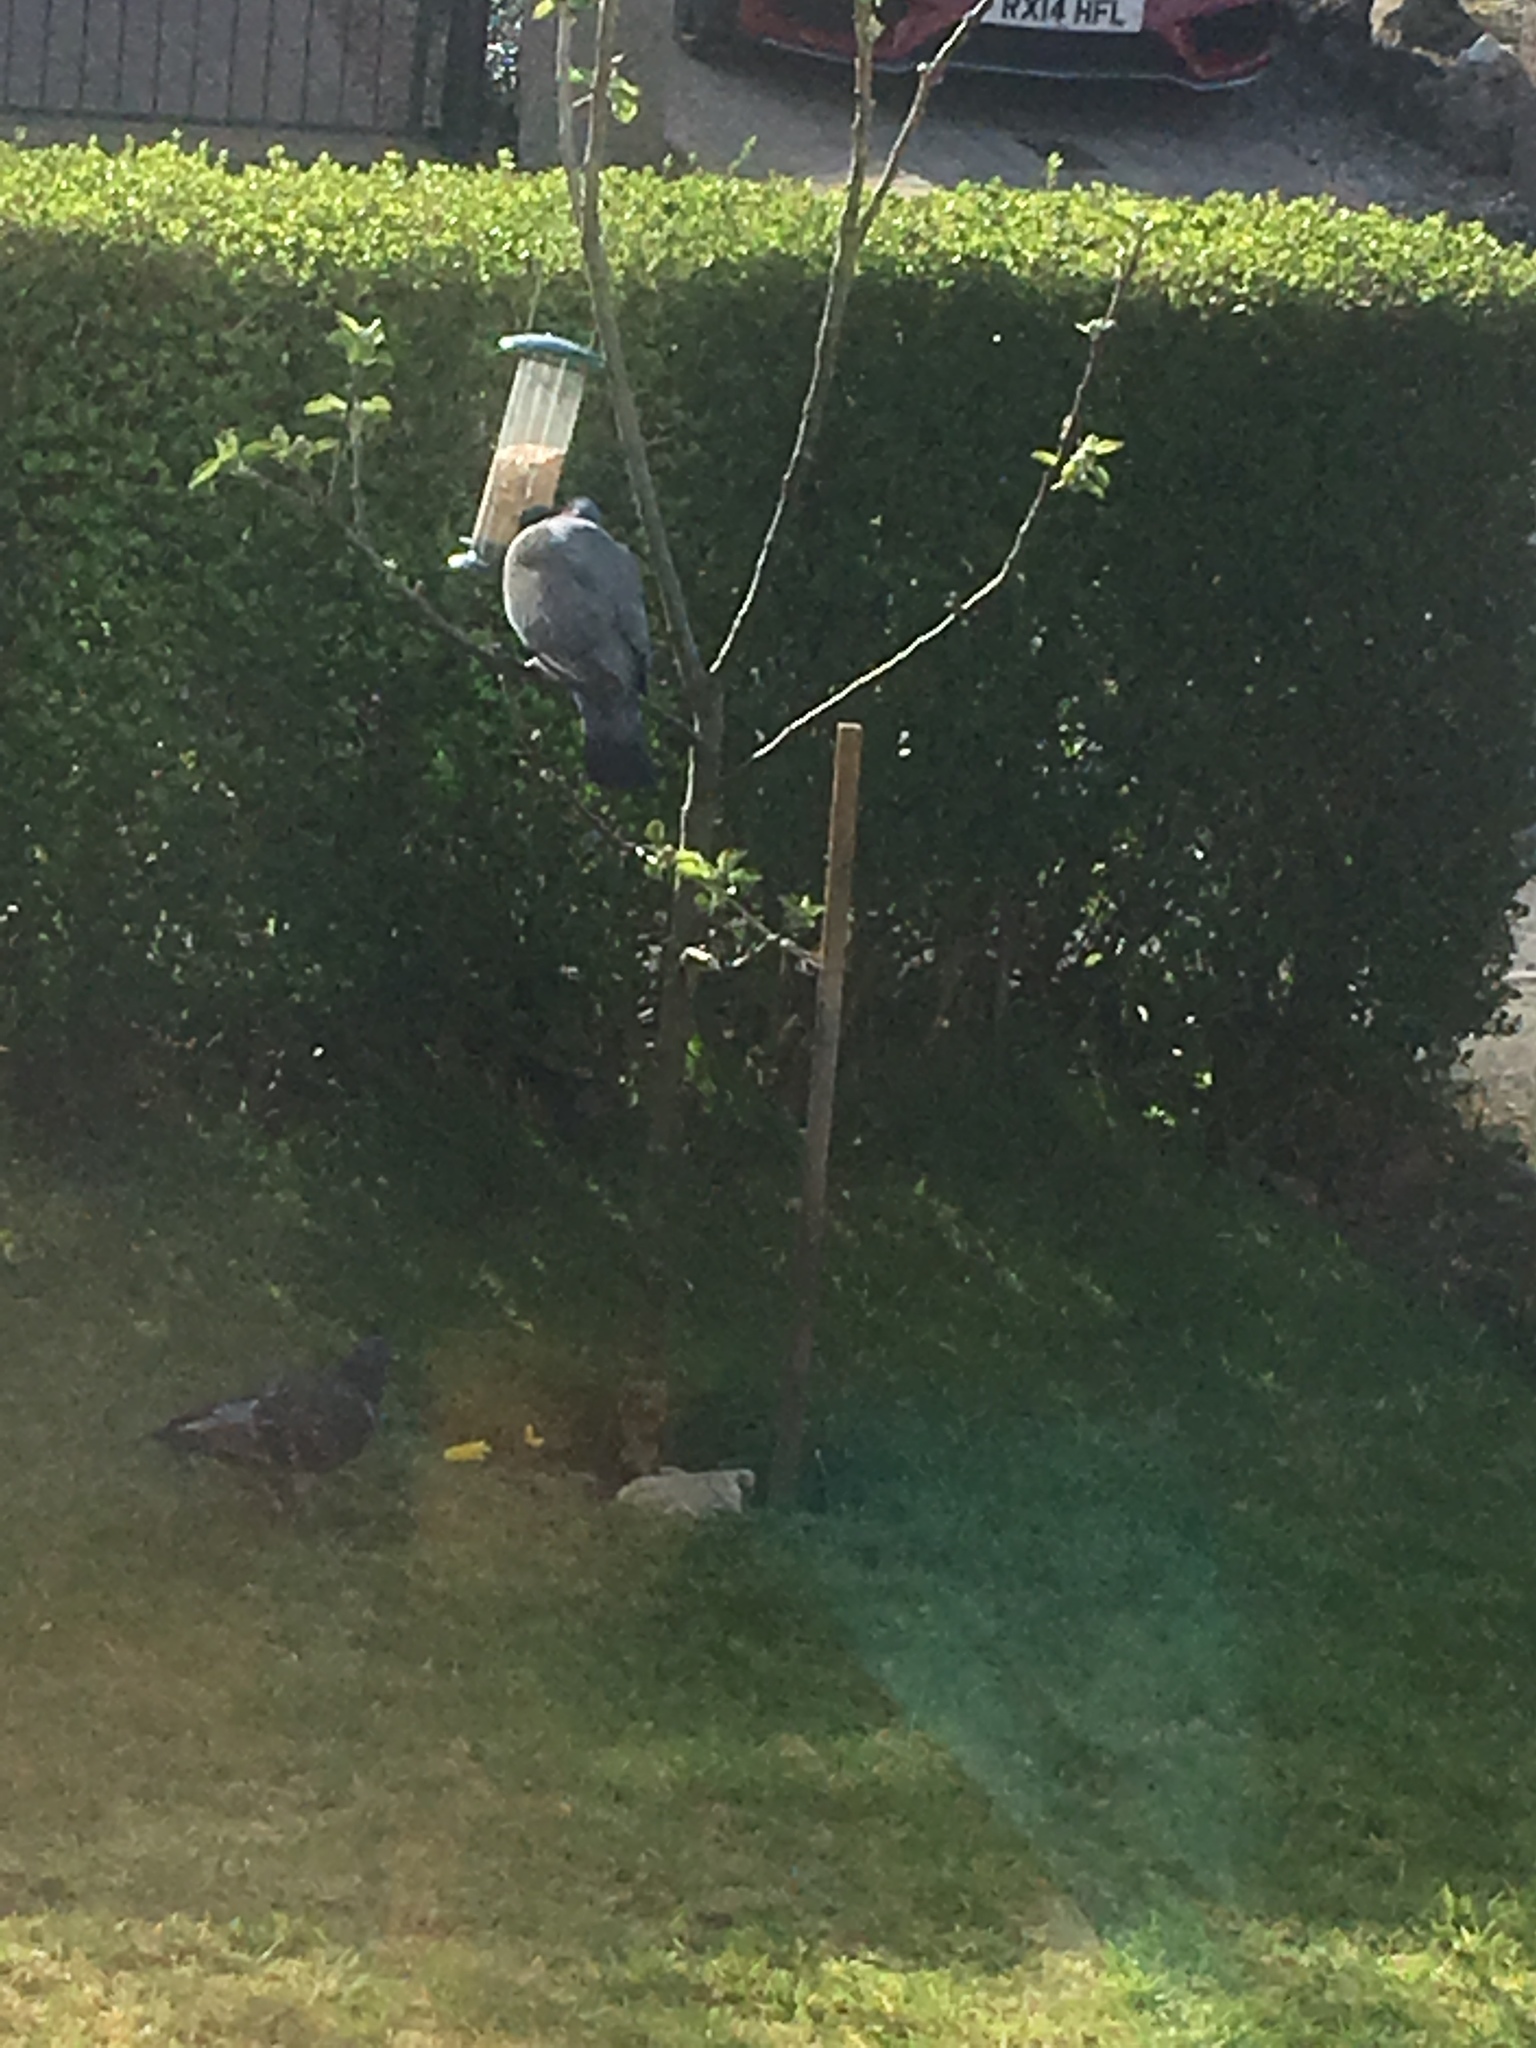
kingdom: Animalia
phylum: Chordata
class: Aves
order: Columbiformes
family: Columbidae
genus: Columba
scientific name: Columba palumbus
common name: Common wood pigeon
